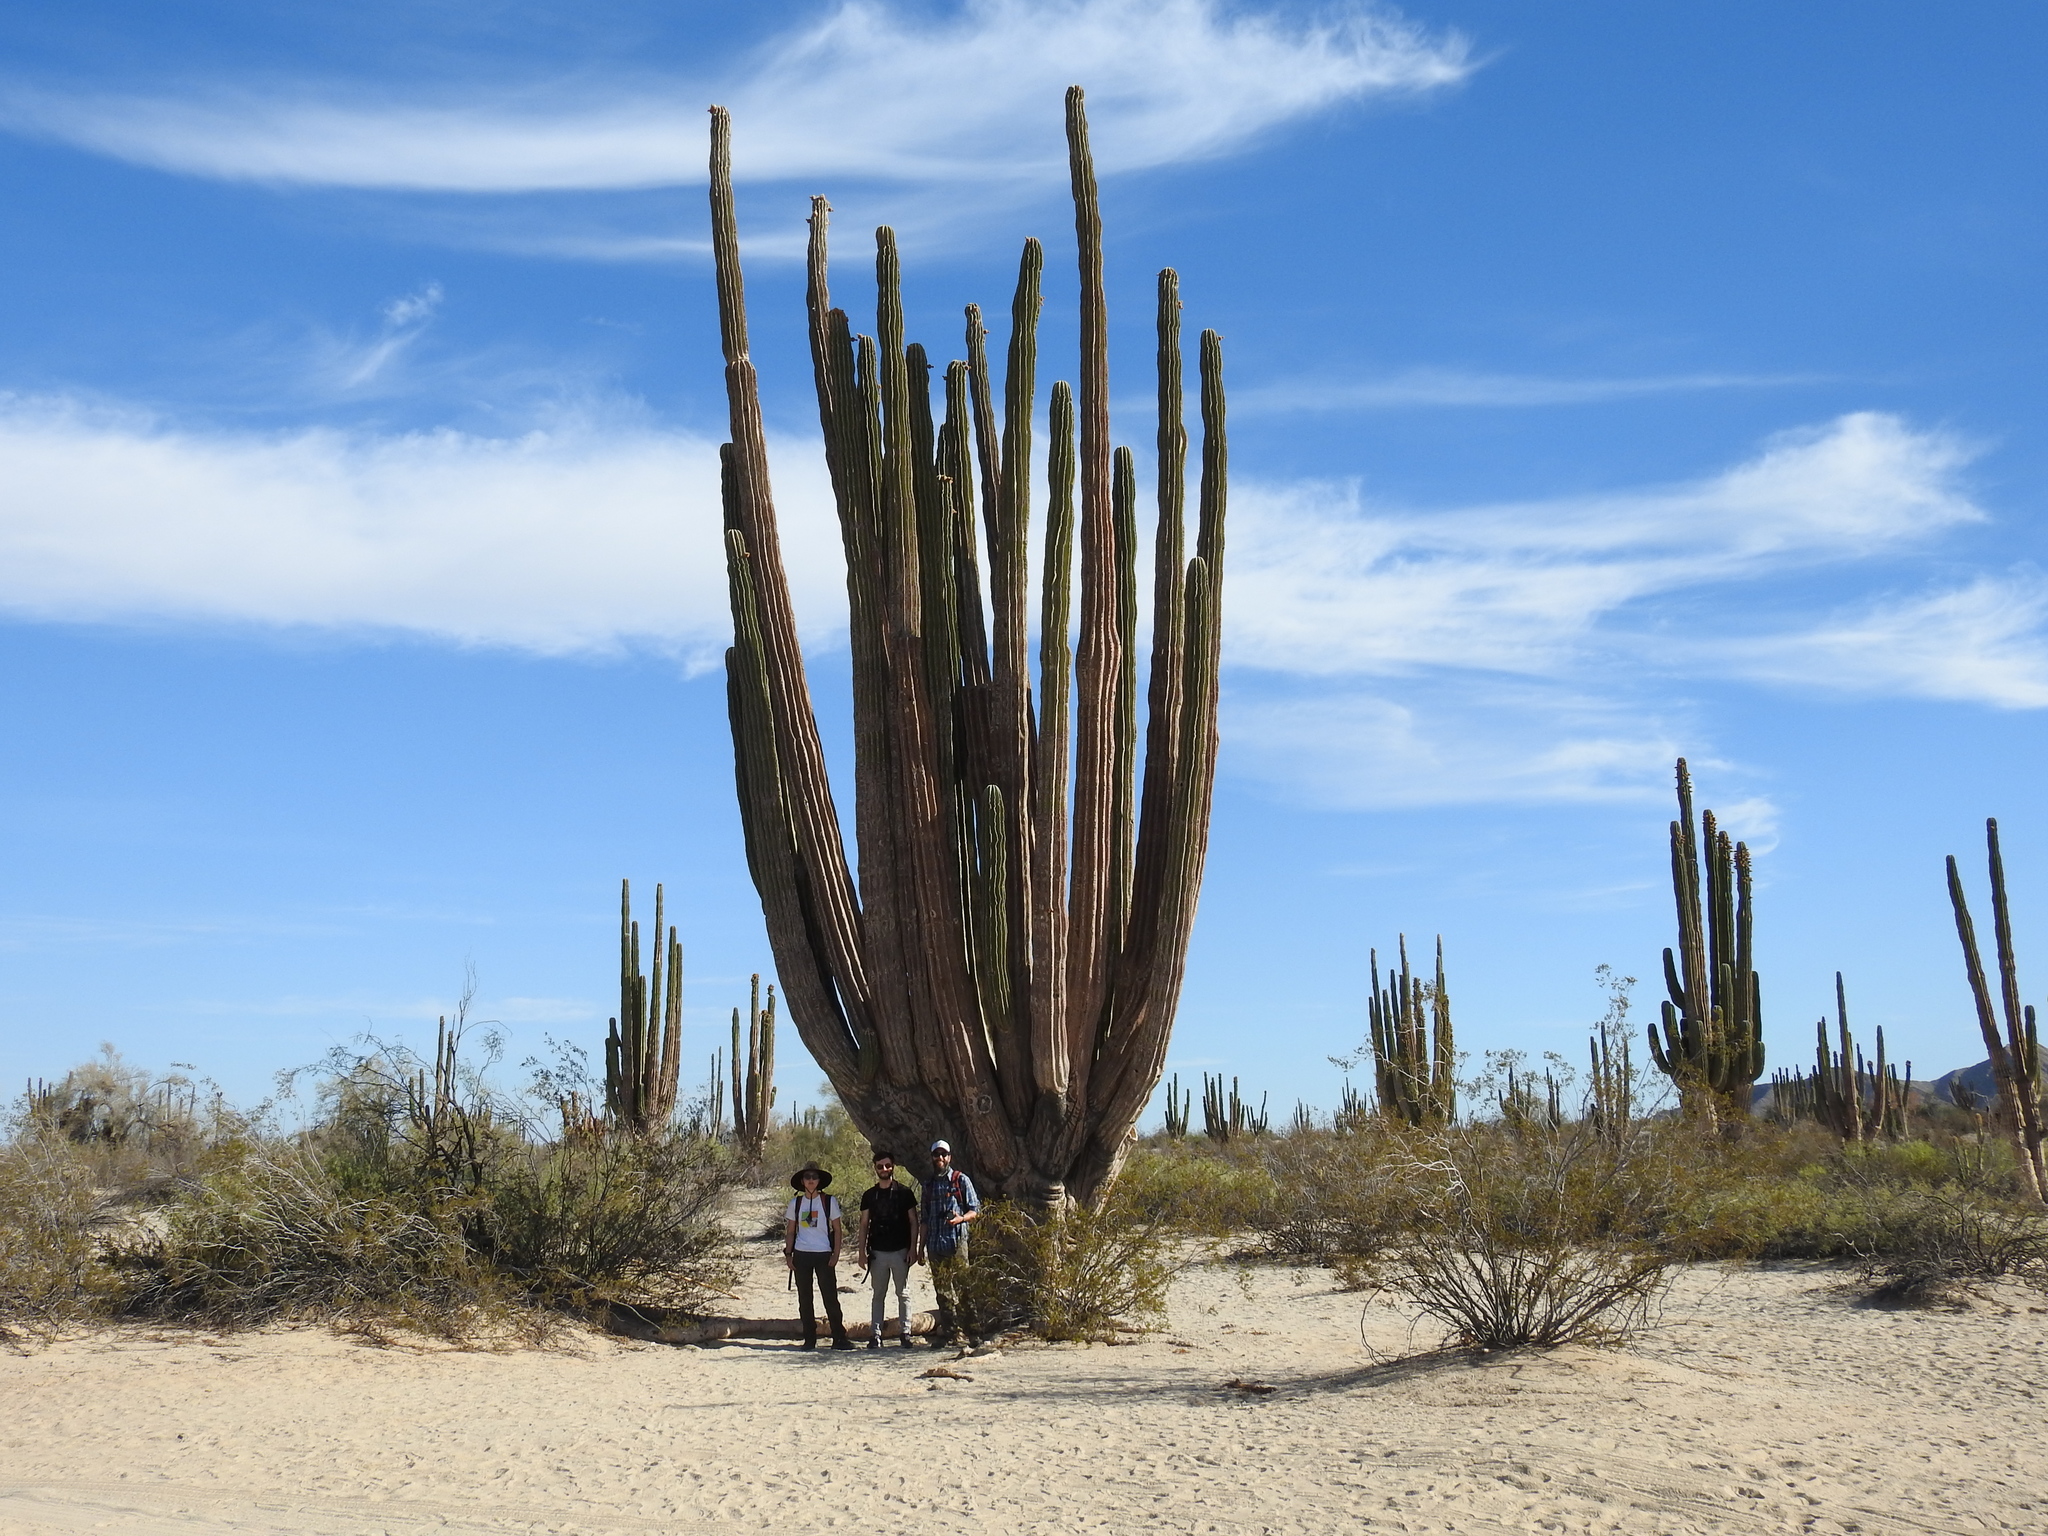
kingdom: Plantae
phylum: Tracheophyta
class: Magnoliopsida
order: Caryophyllales
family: Cactaceae
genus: Pachycereus
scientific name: Pachycereus pringlei
